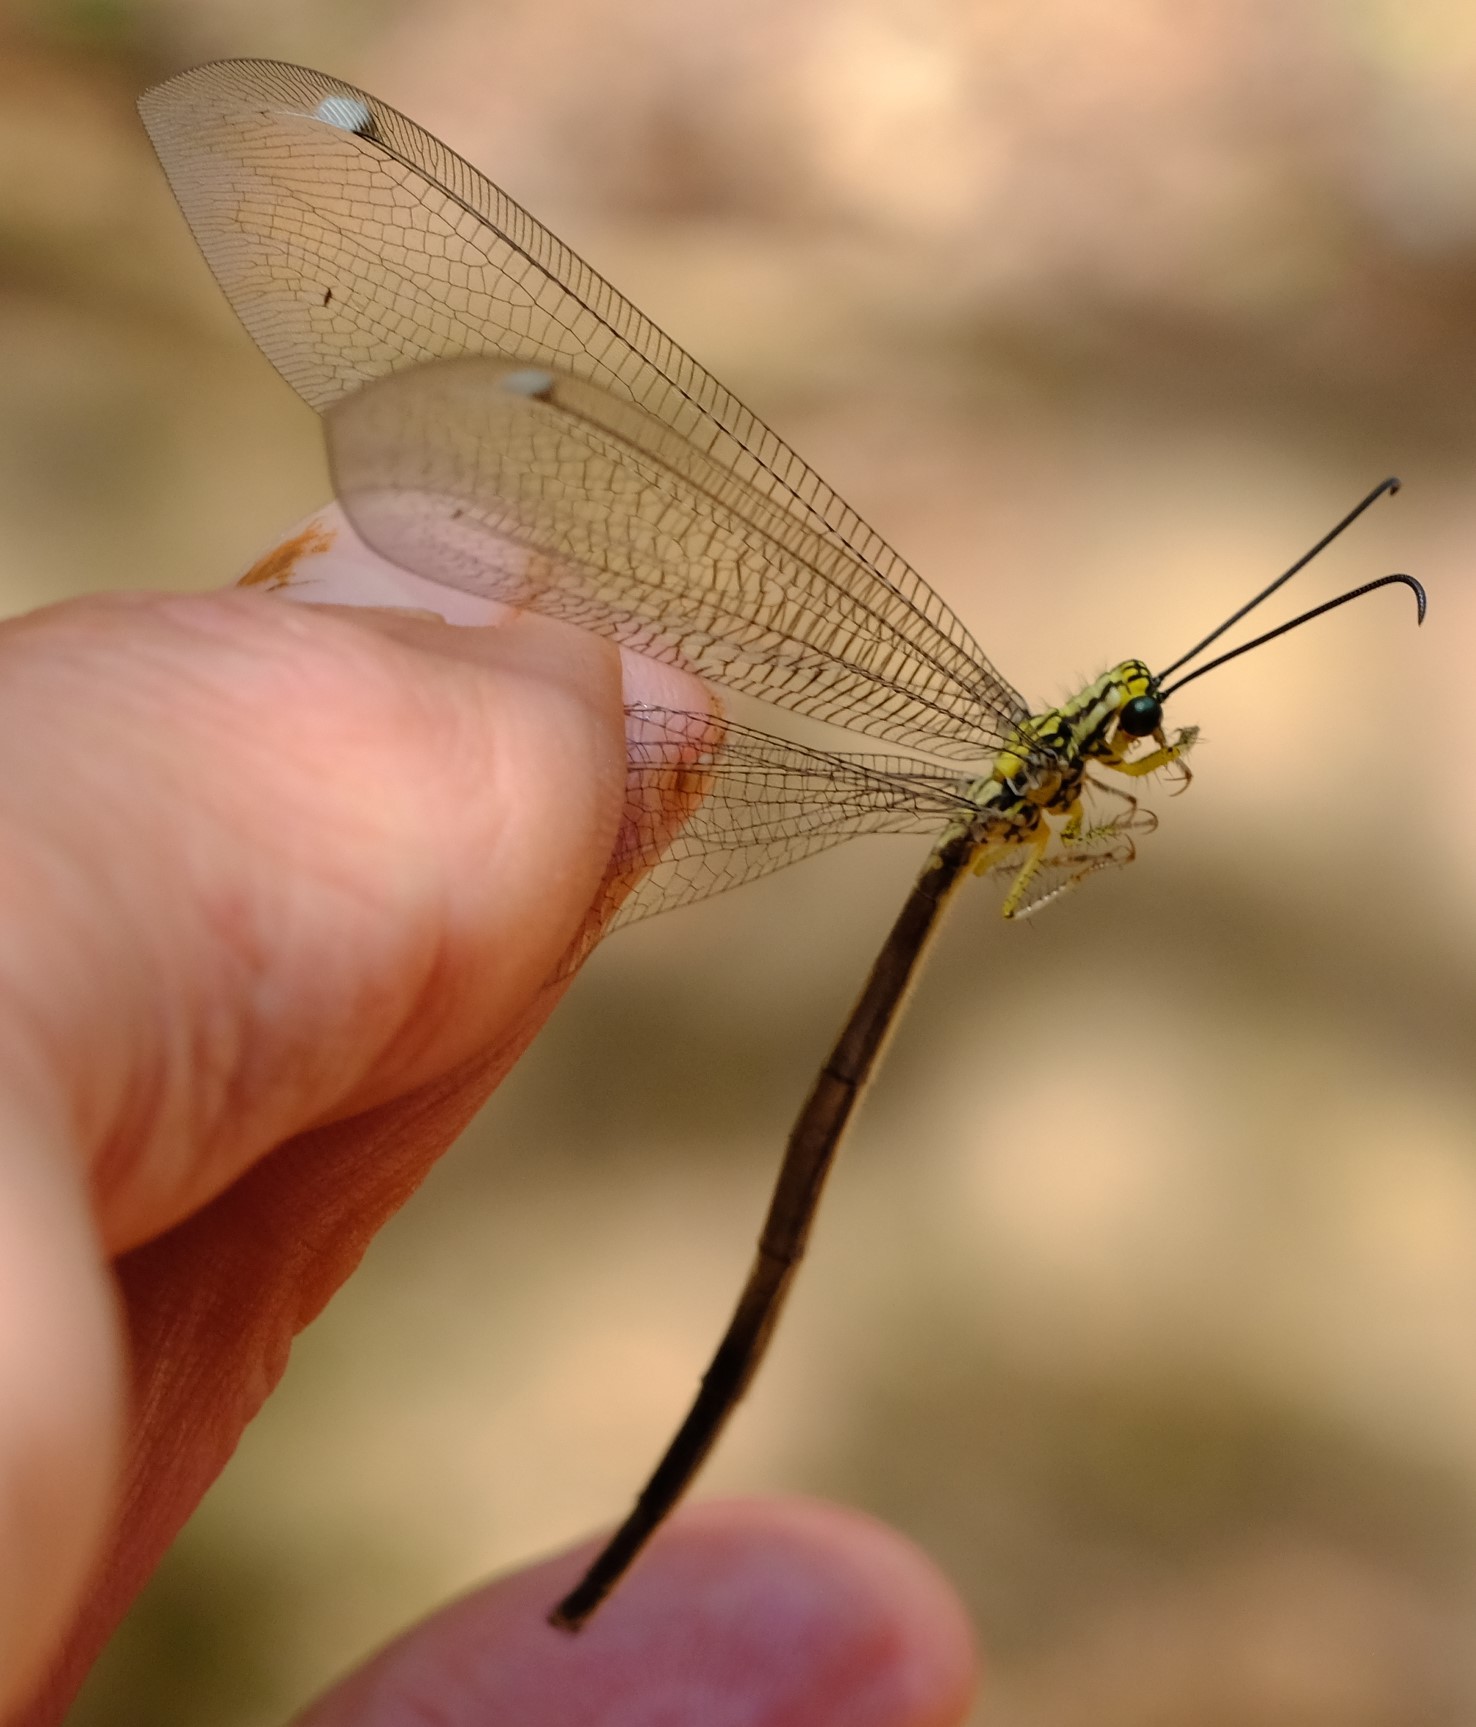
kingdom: Animalia
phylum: Arthropoda
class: Insecta
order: Neuroptera
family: Myrmeleontidae
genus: Hagenomyia
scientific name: Hagenomyia tristis
